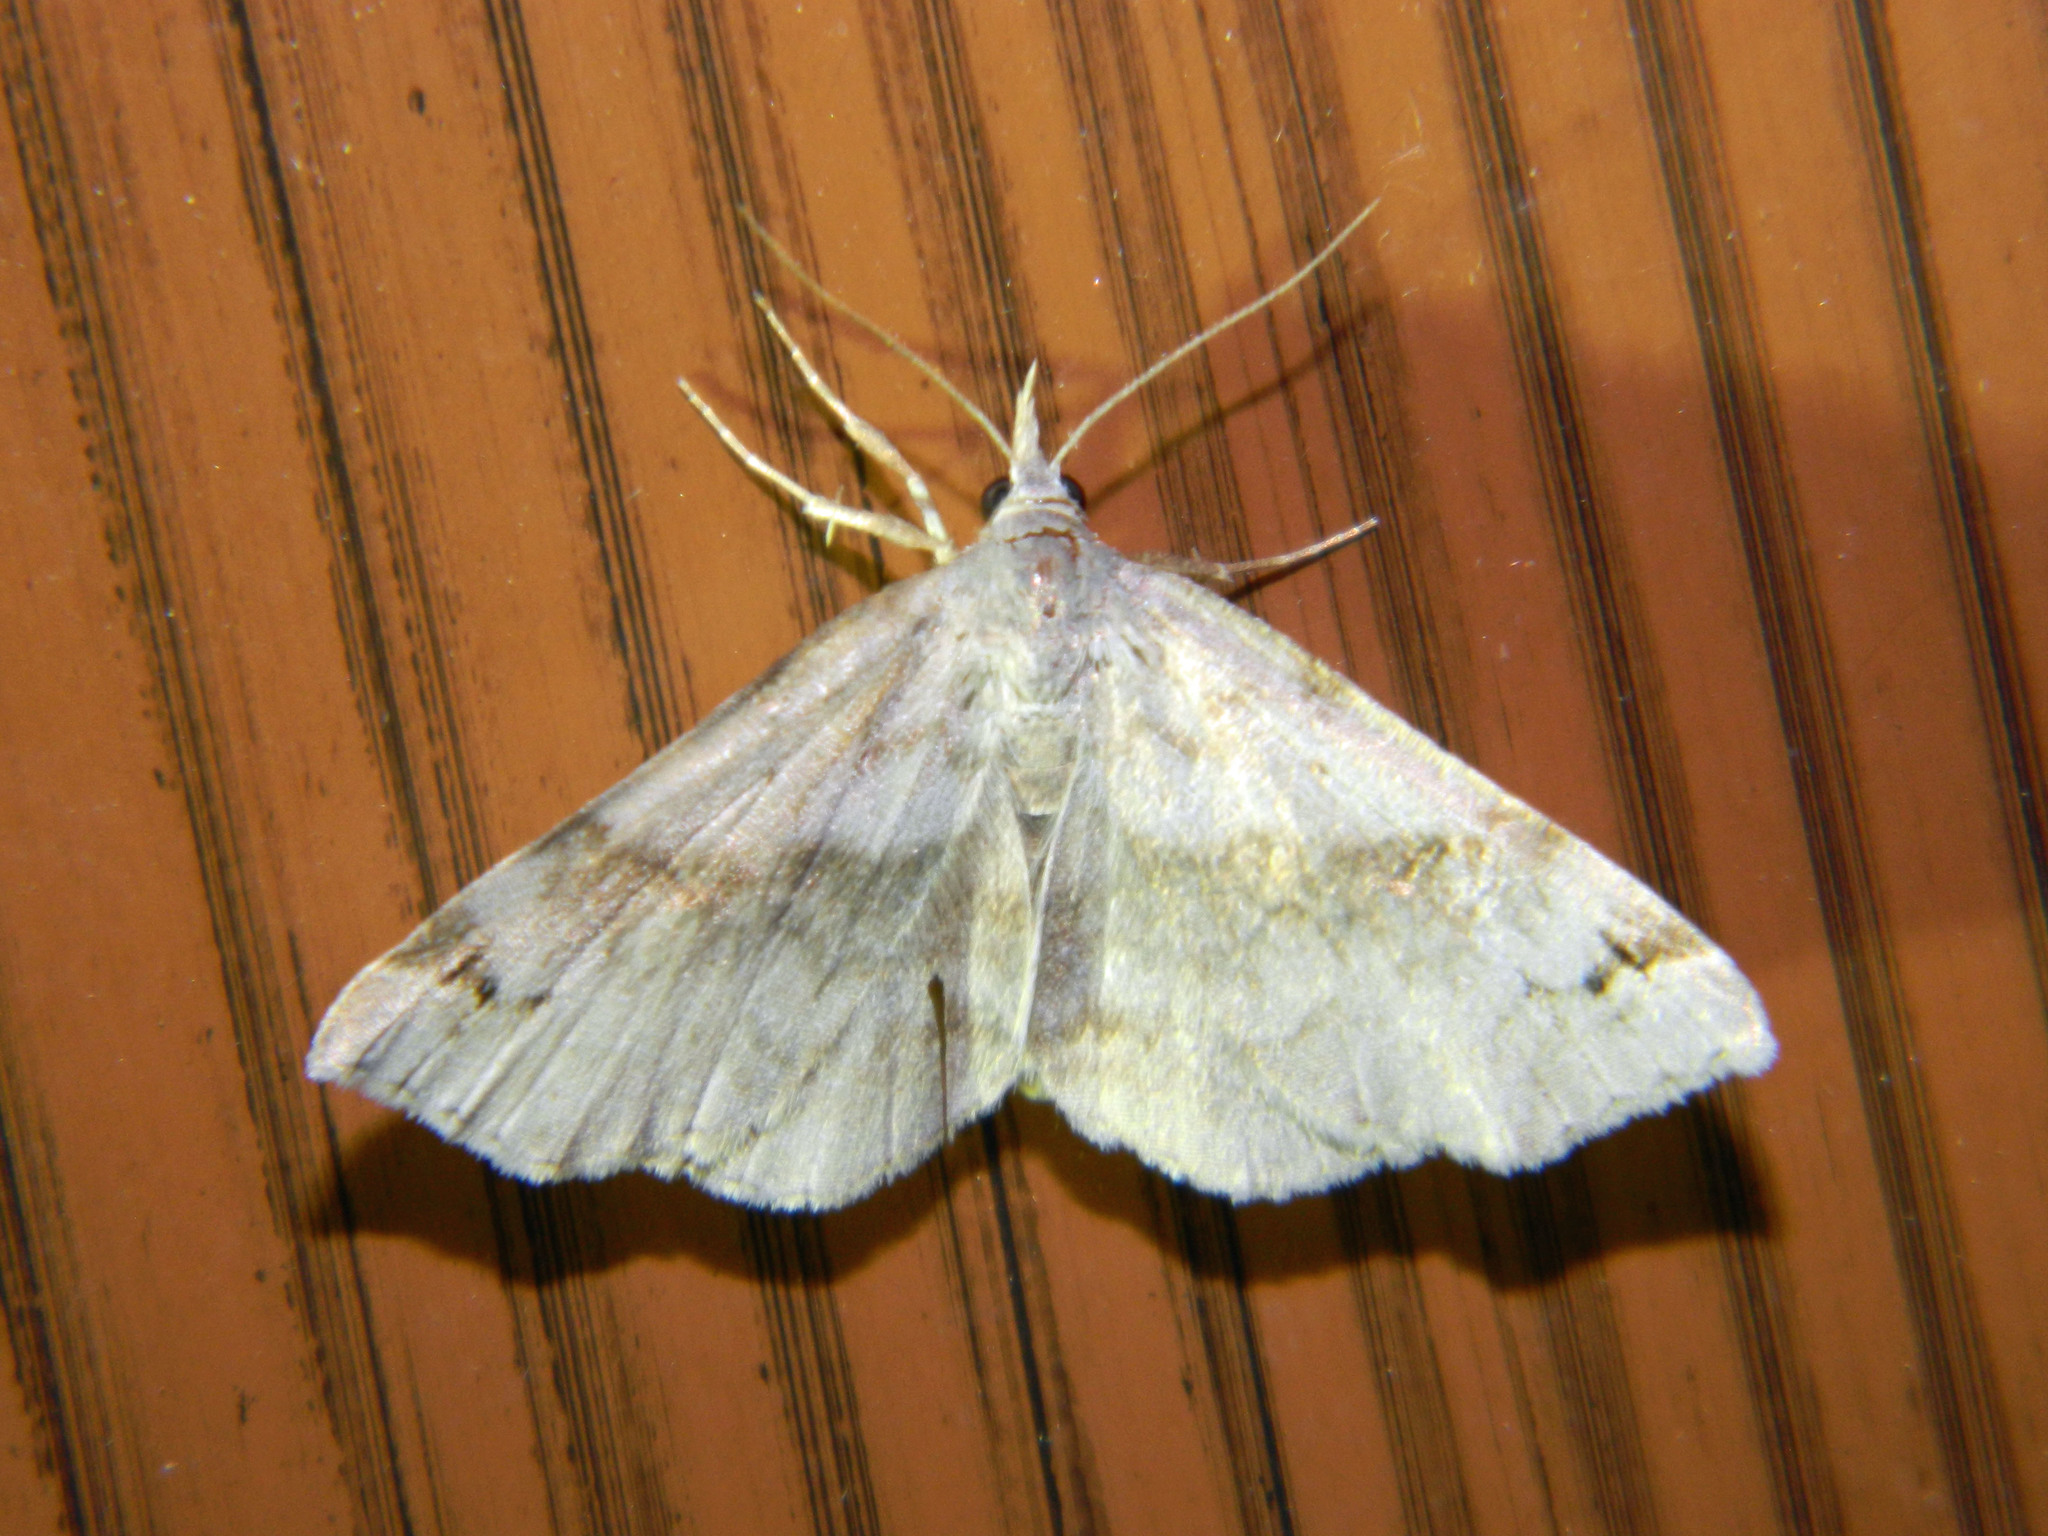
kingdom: Animalia
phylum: Arthropoda
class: Insecta
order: Lepidoptera
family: Erebidae
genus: Spargaloma
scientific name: Spargaloma sexpunctata
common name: Six-spotted gray
